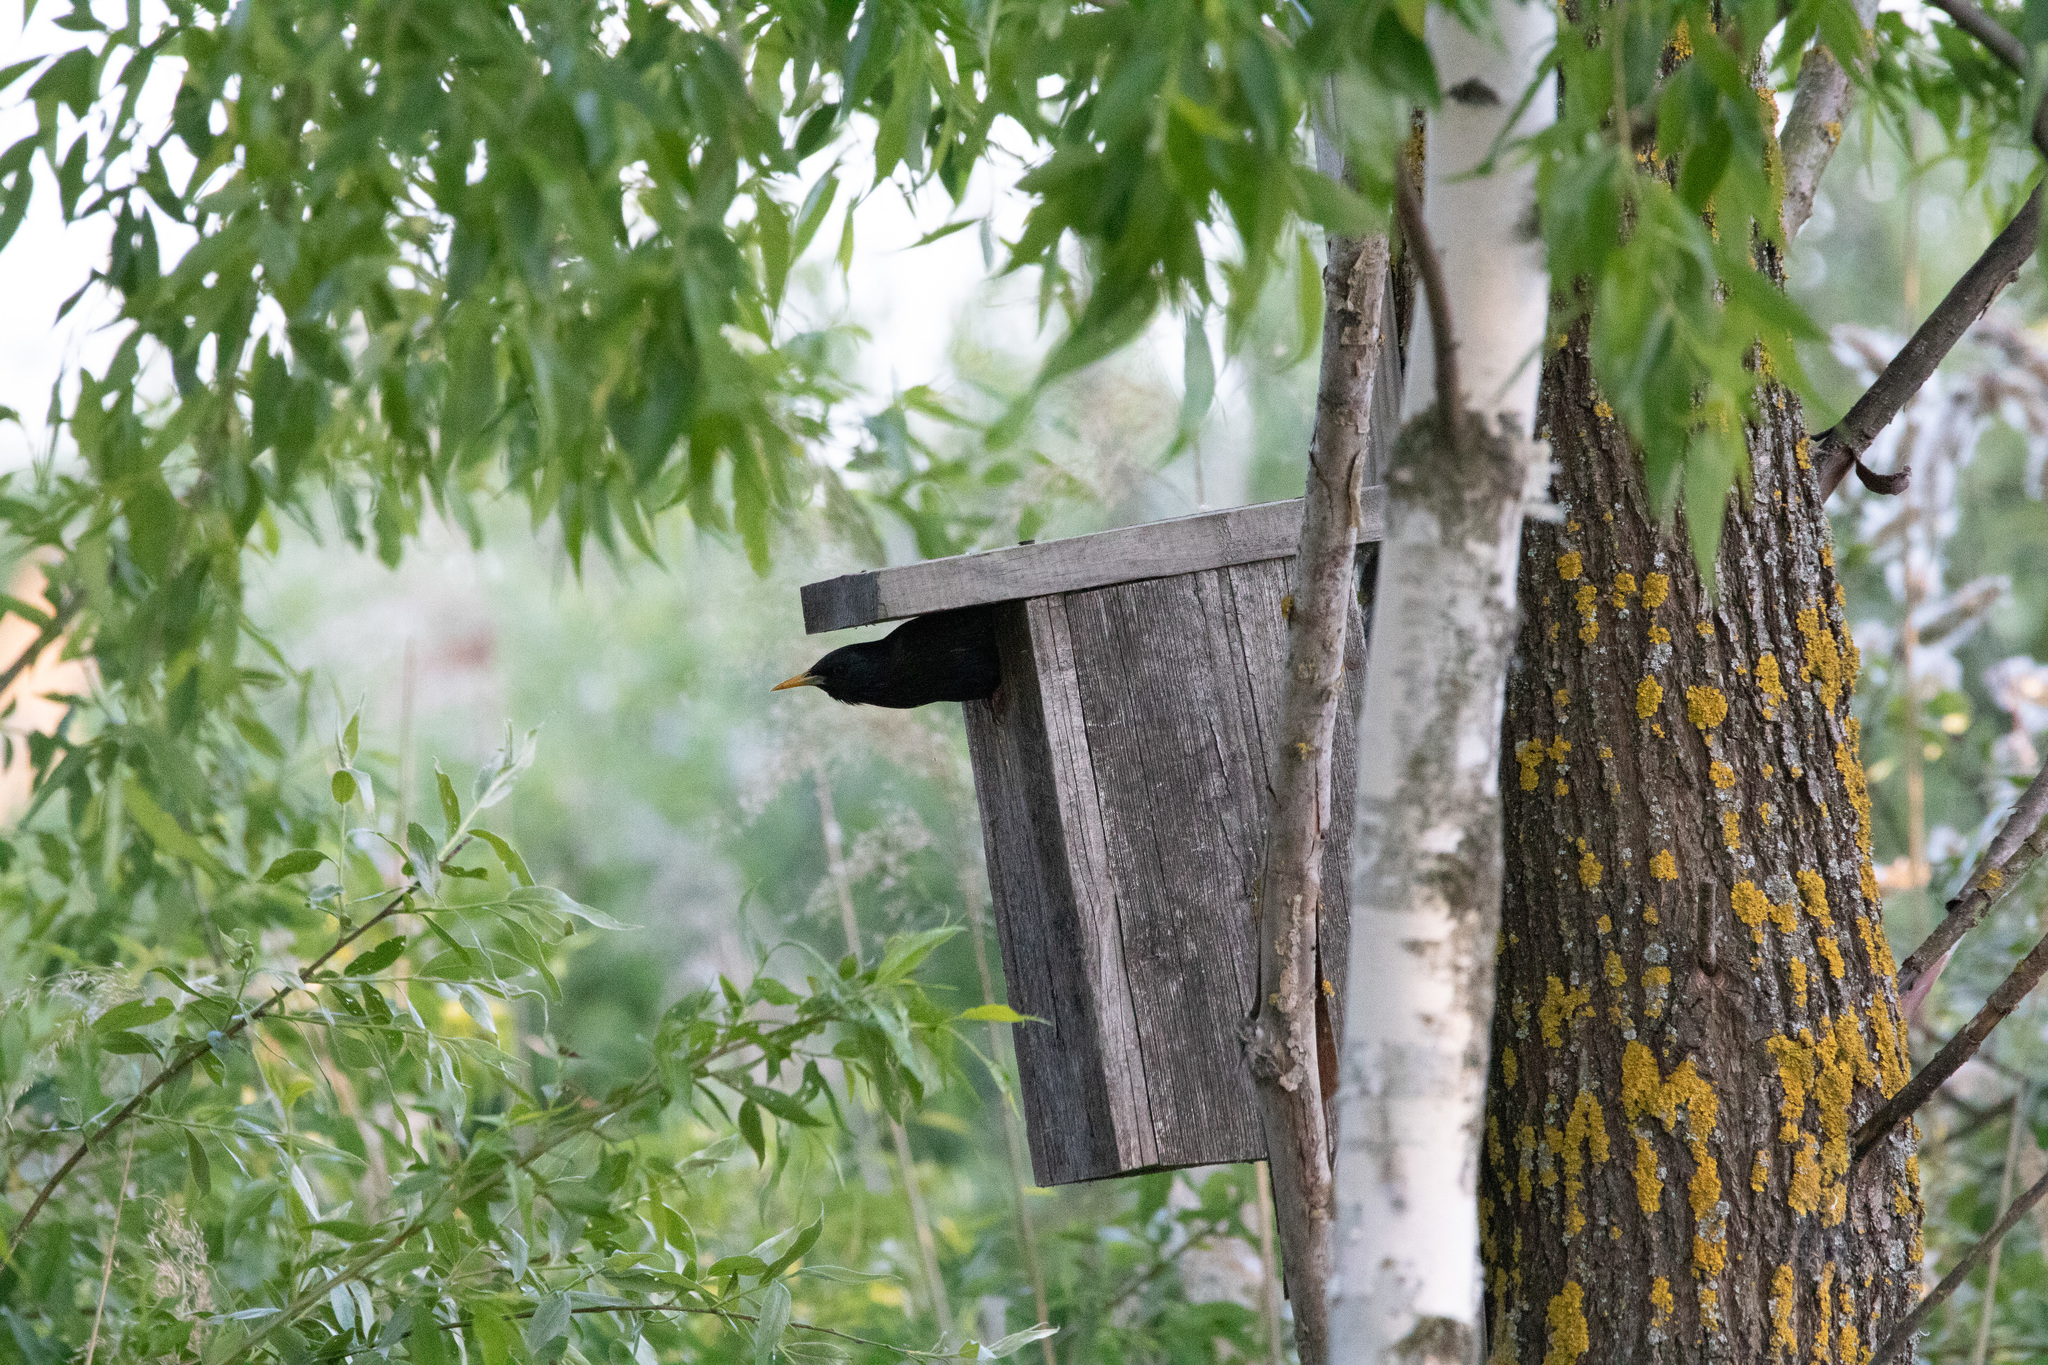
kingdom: Animalia
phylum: Chordata
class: Aves
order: Passeriformes
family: Sturnidae
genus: Sturnus
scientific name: Sturnus vulgaris
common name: Common starling
